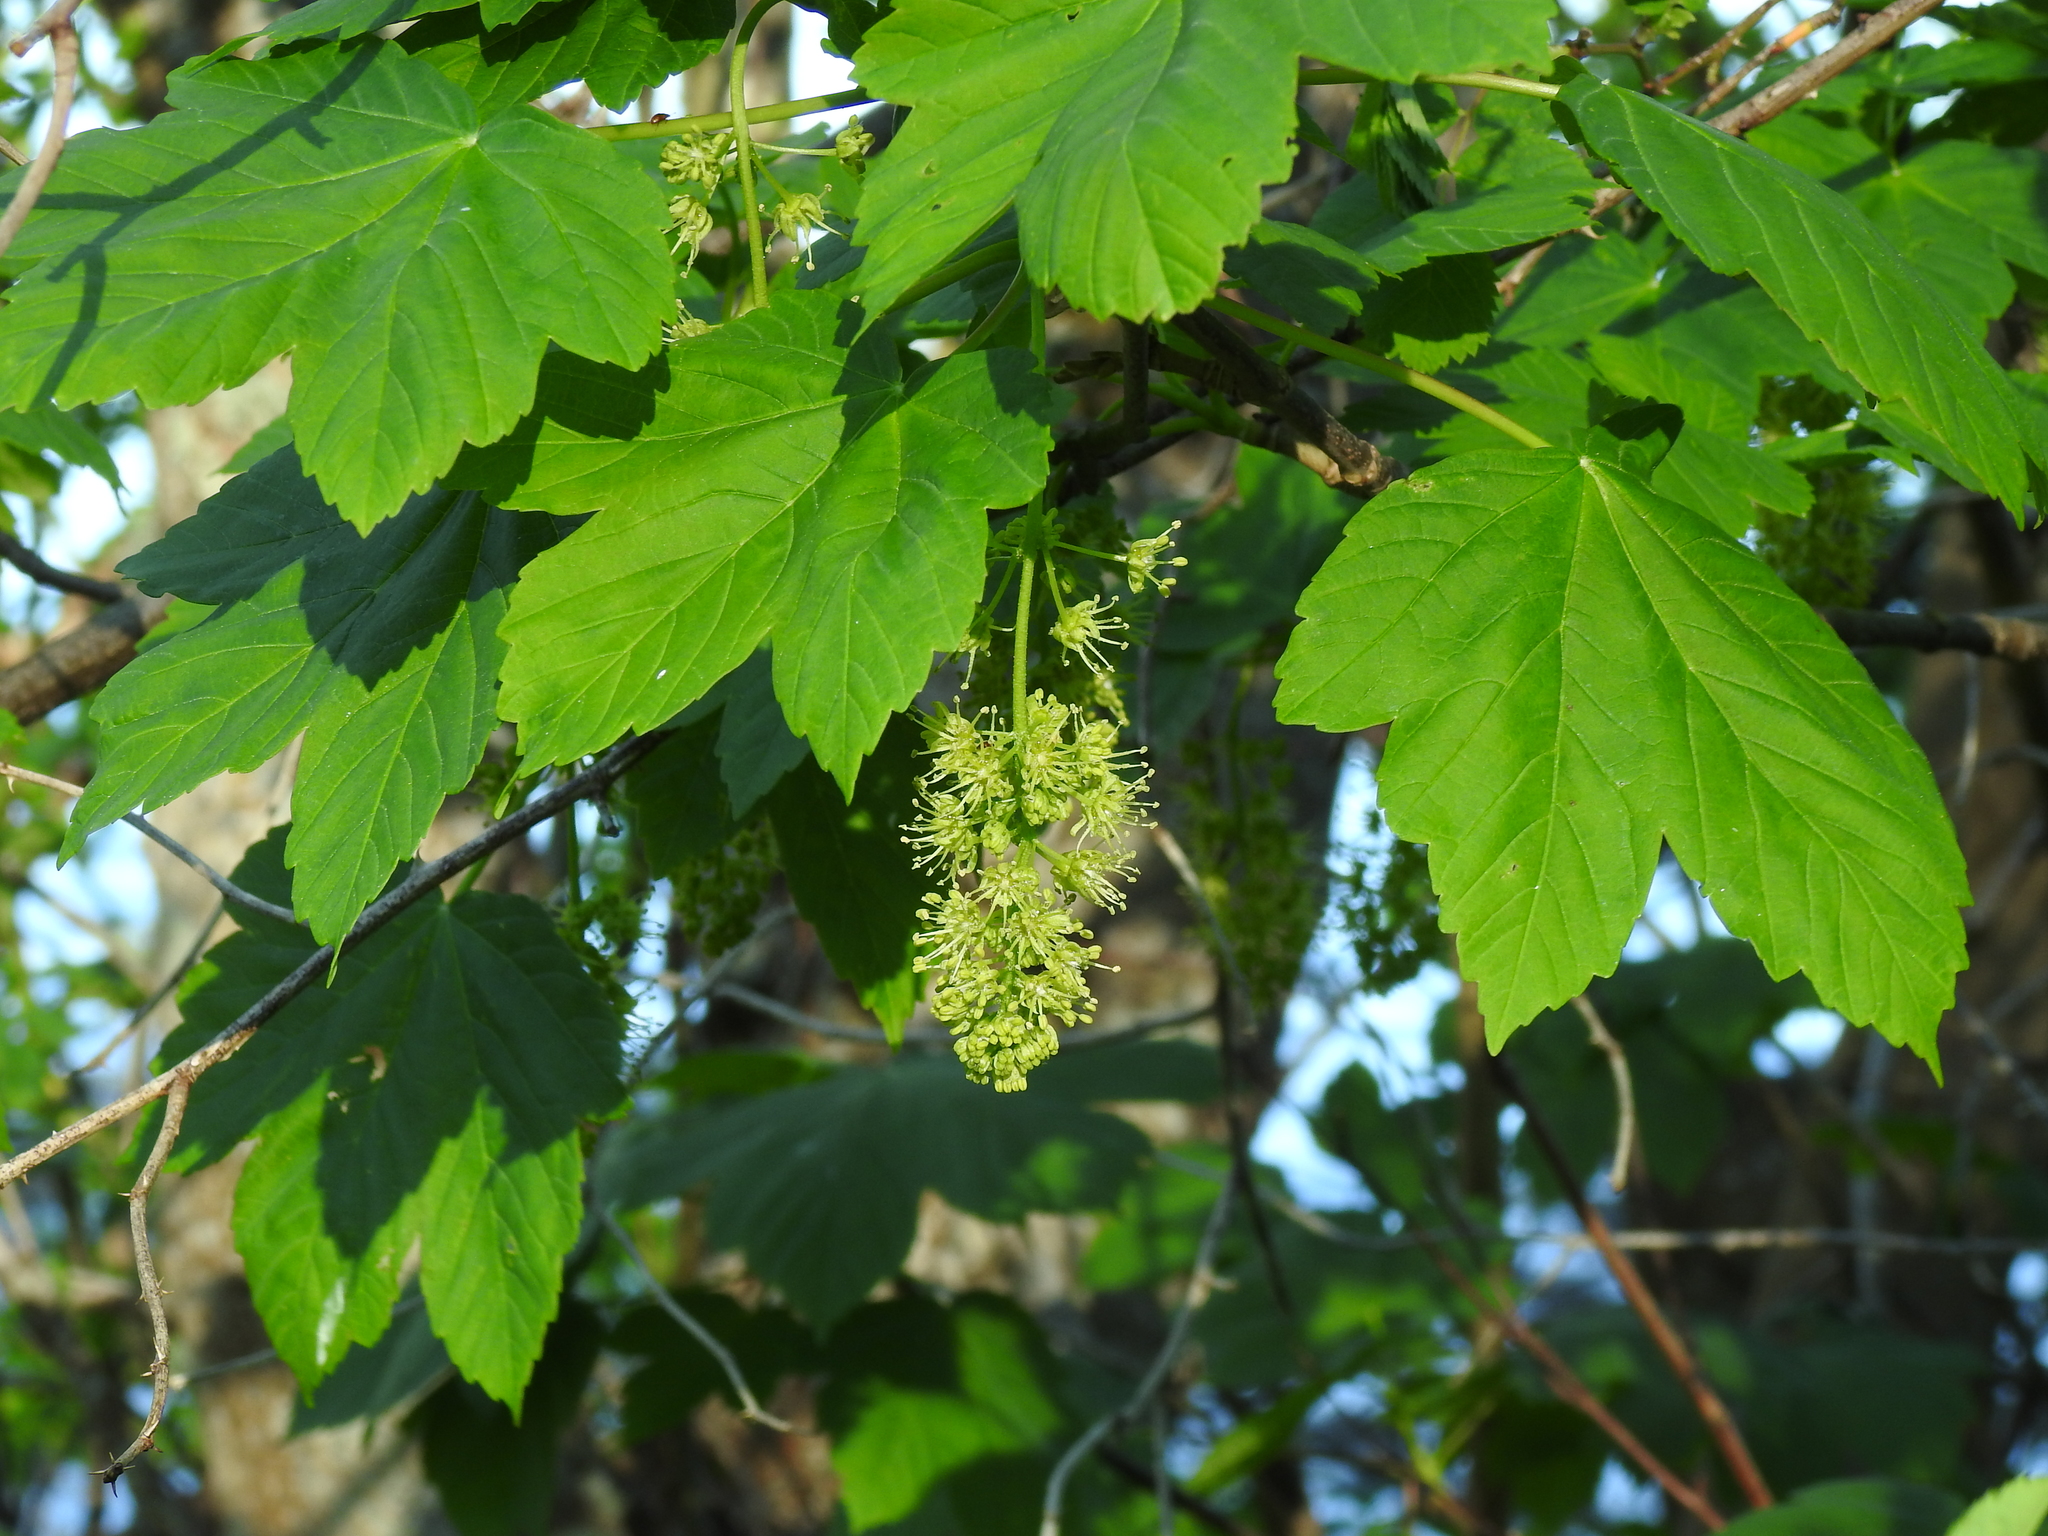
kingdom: Plantae
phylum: Tracheophyta
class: Magnoliopsida
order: Sapindales
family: Sapindaceae
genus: Acer
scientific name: Acer pseudoplatanus
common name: Sycamore
